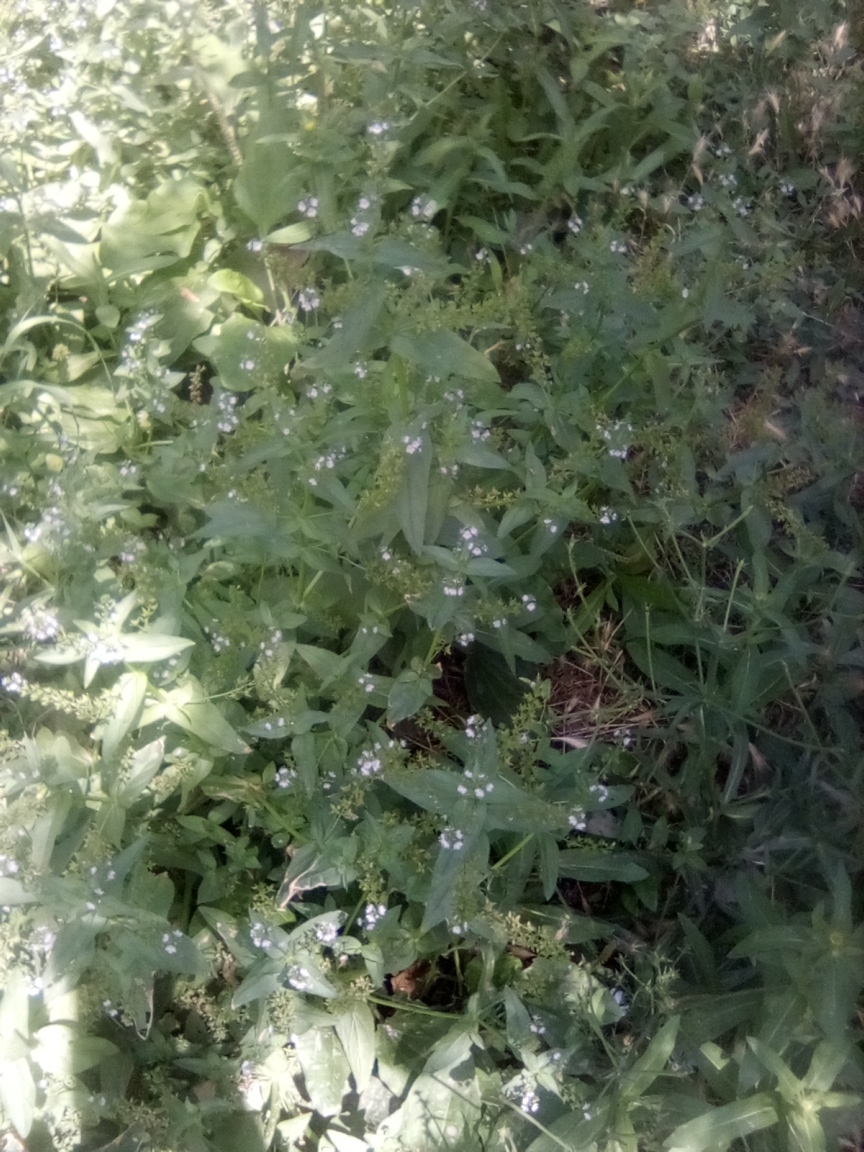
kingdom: Plantae
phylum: Tracheophyta
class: Magnoliopsida
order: Lamiales
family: Plantaginaceae
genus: Veronica
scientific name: Veronica anagallis-aquatica
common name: Water speedwell
